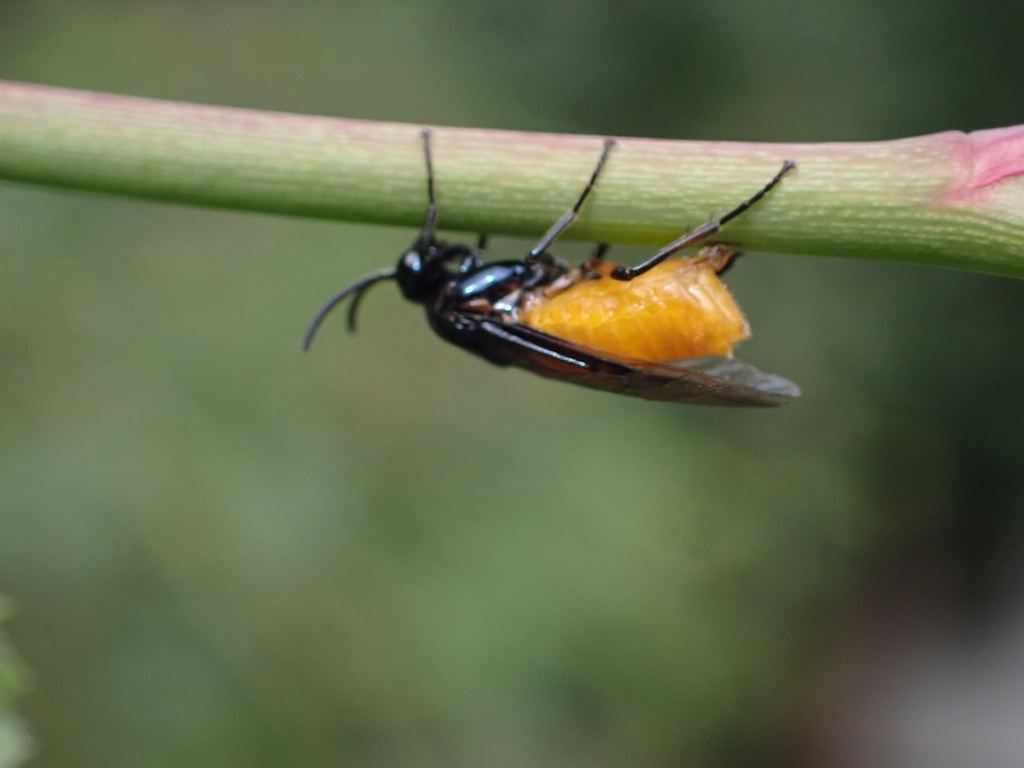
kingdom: Animalia
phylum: Arthropoda
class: Insecta
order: Hymenoptera
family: Argidae
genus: Arge
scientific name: Arge pagana
